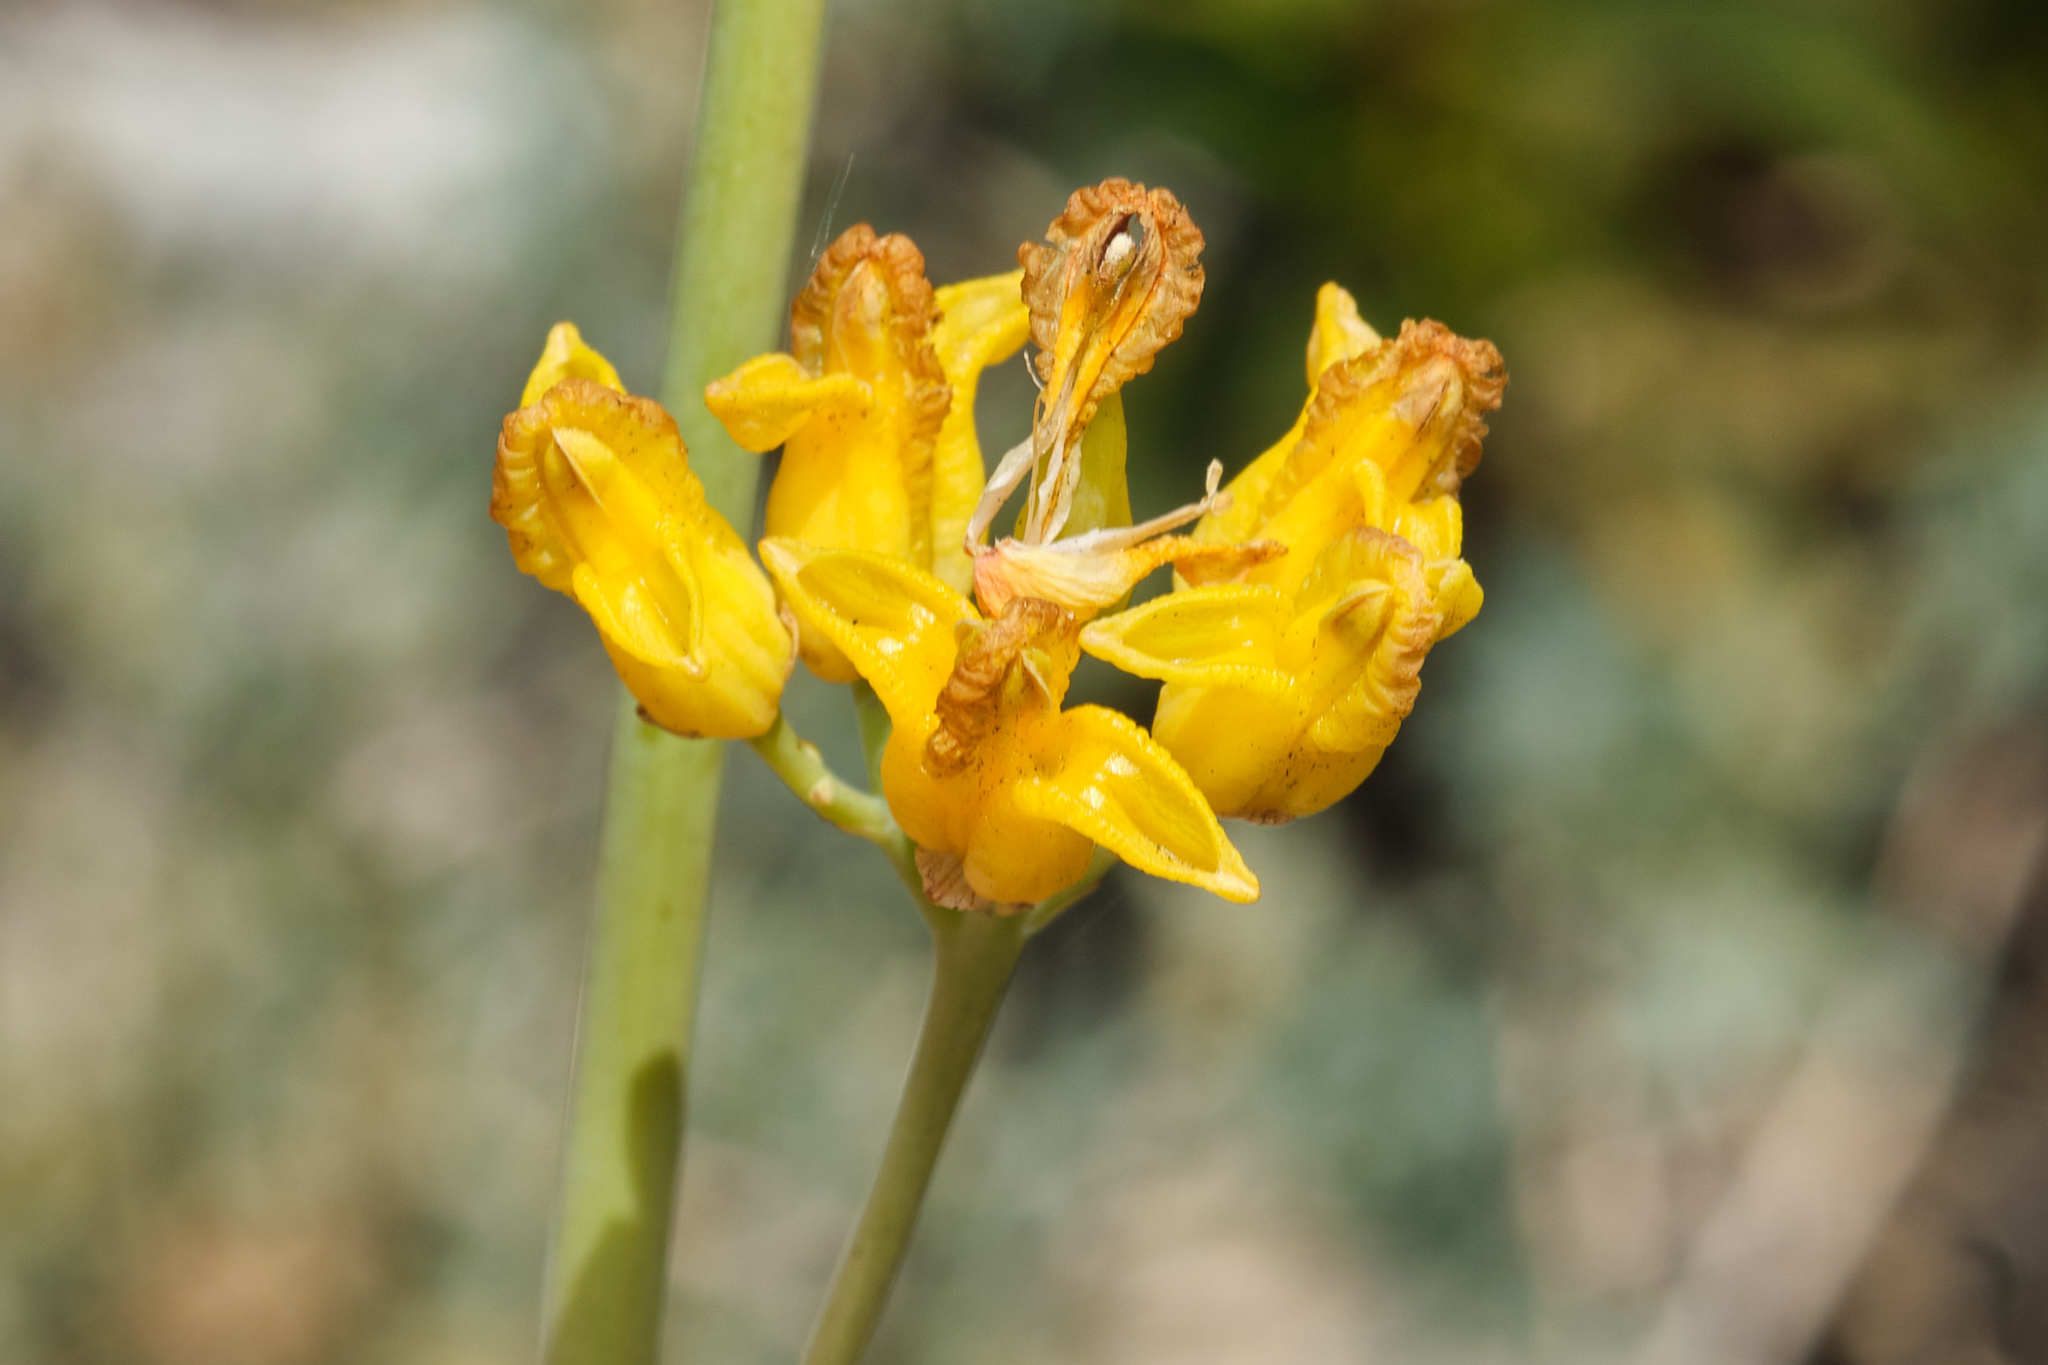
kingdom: Plantae
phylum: Tracheophyta
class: Magnoliopsida
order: Ranunculales
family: Papaveraceae
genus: Ehrendorferia
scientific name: Ehrendorferia chrysantha
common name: Golden eardrops
